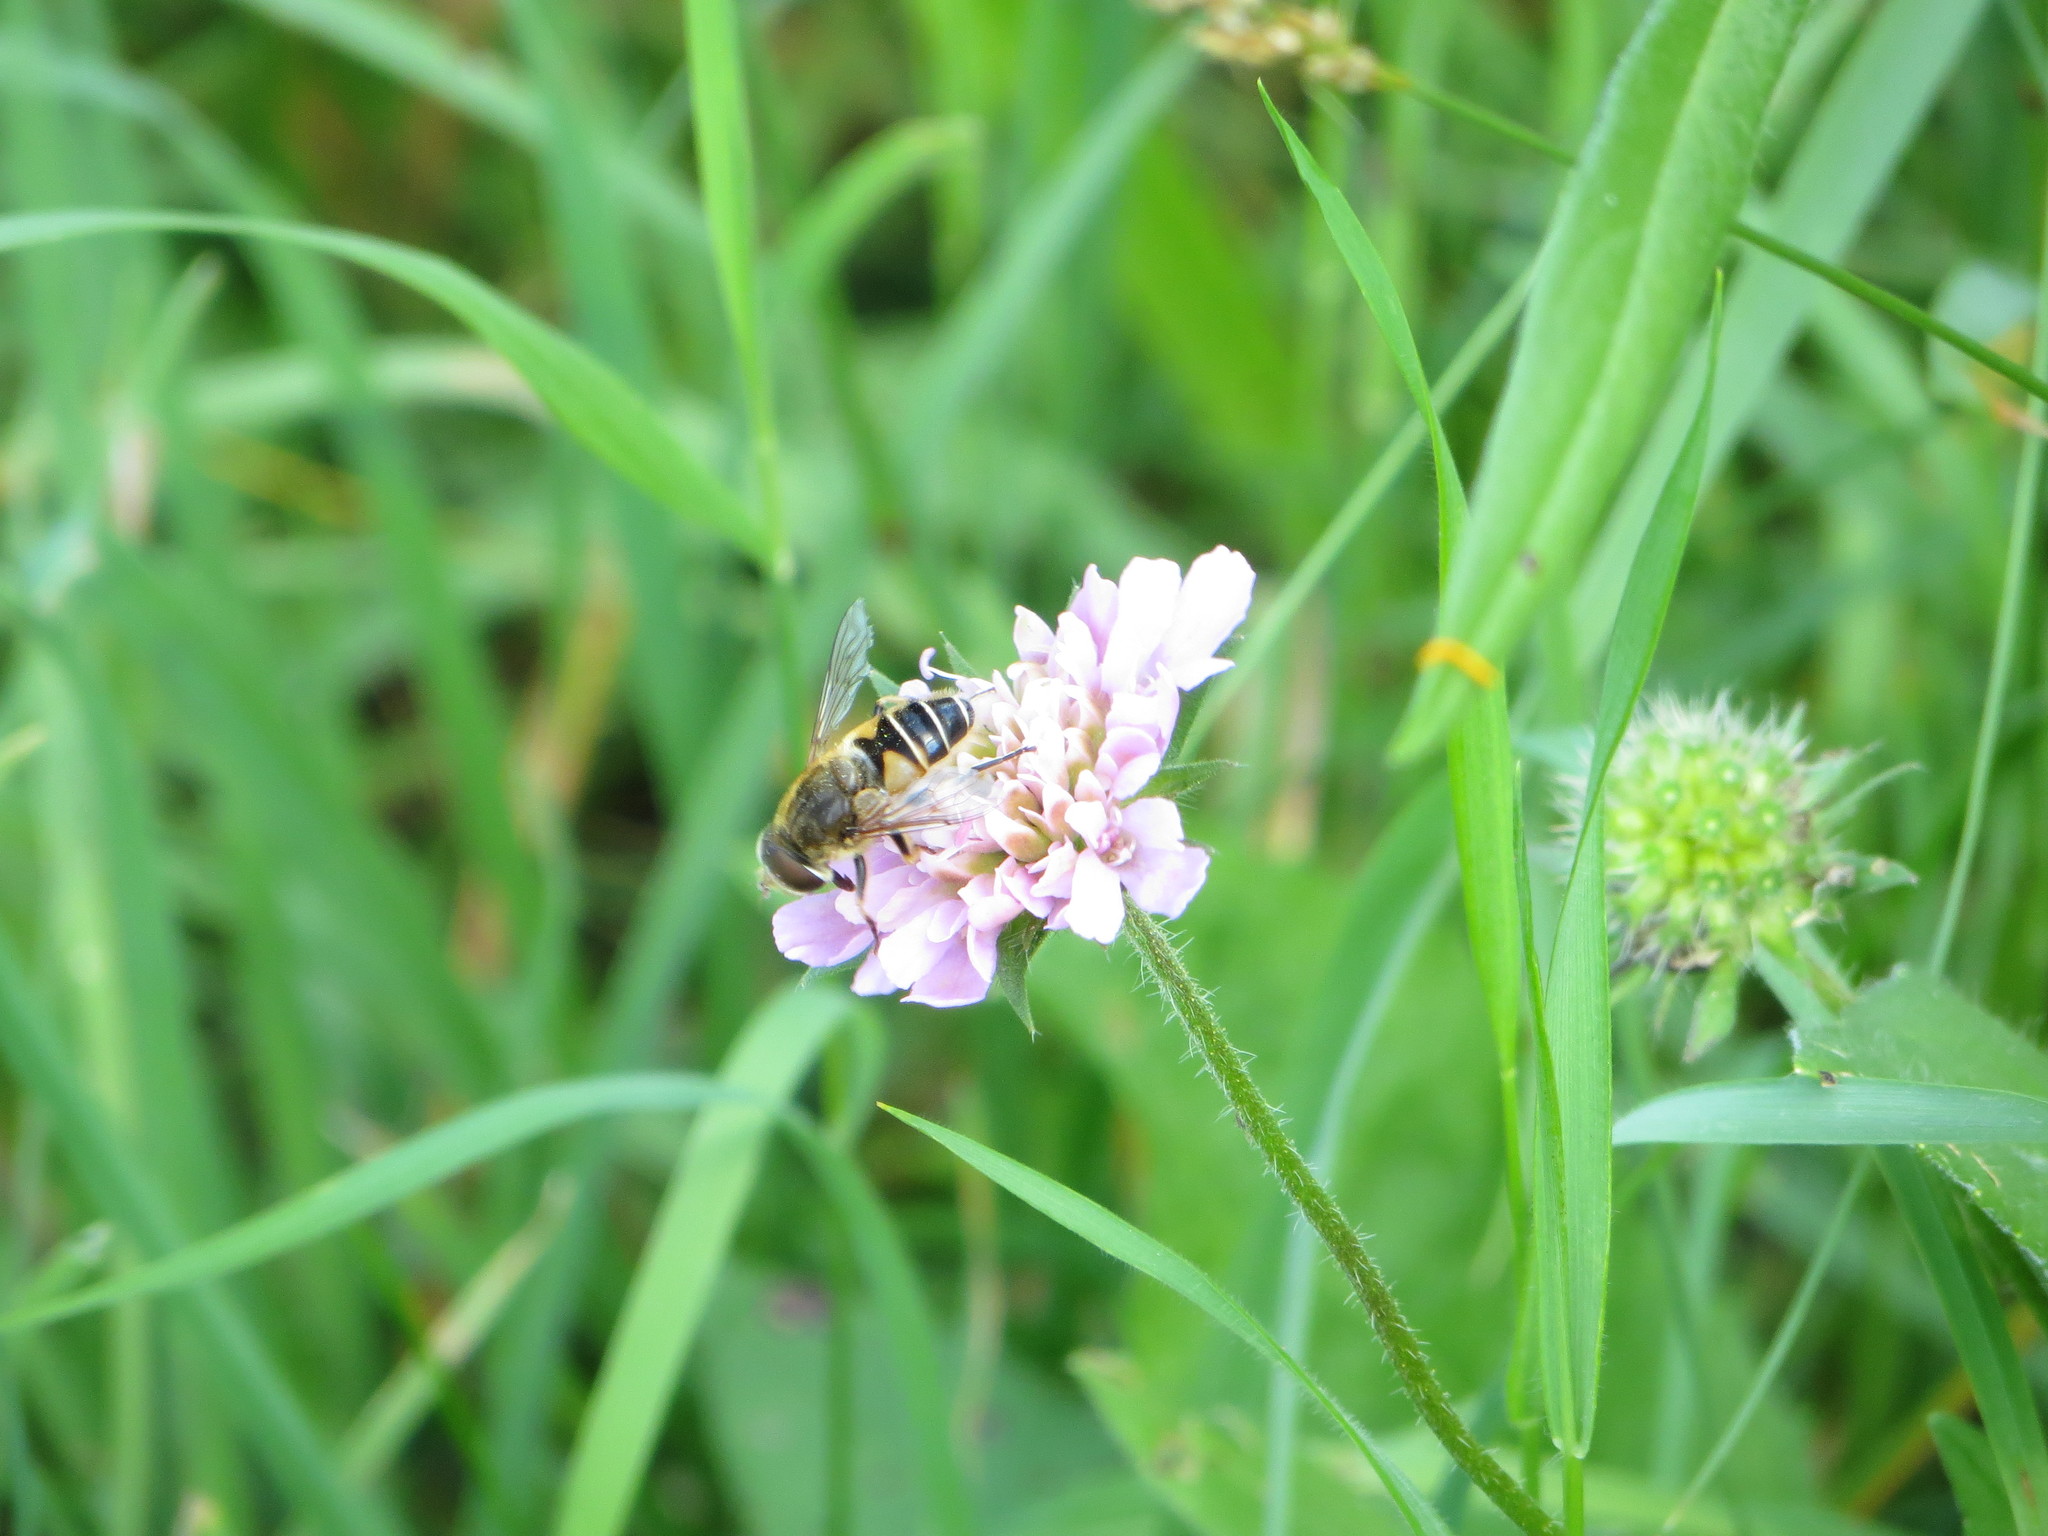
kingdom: Animalia
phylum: Arthropoda
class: Insecta
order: Diptera
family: Syrphidae
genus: Eristalis
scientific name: Eristalis nemorum
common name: Orange-spined drone fly
